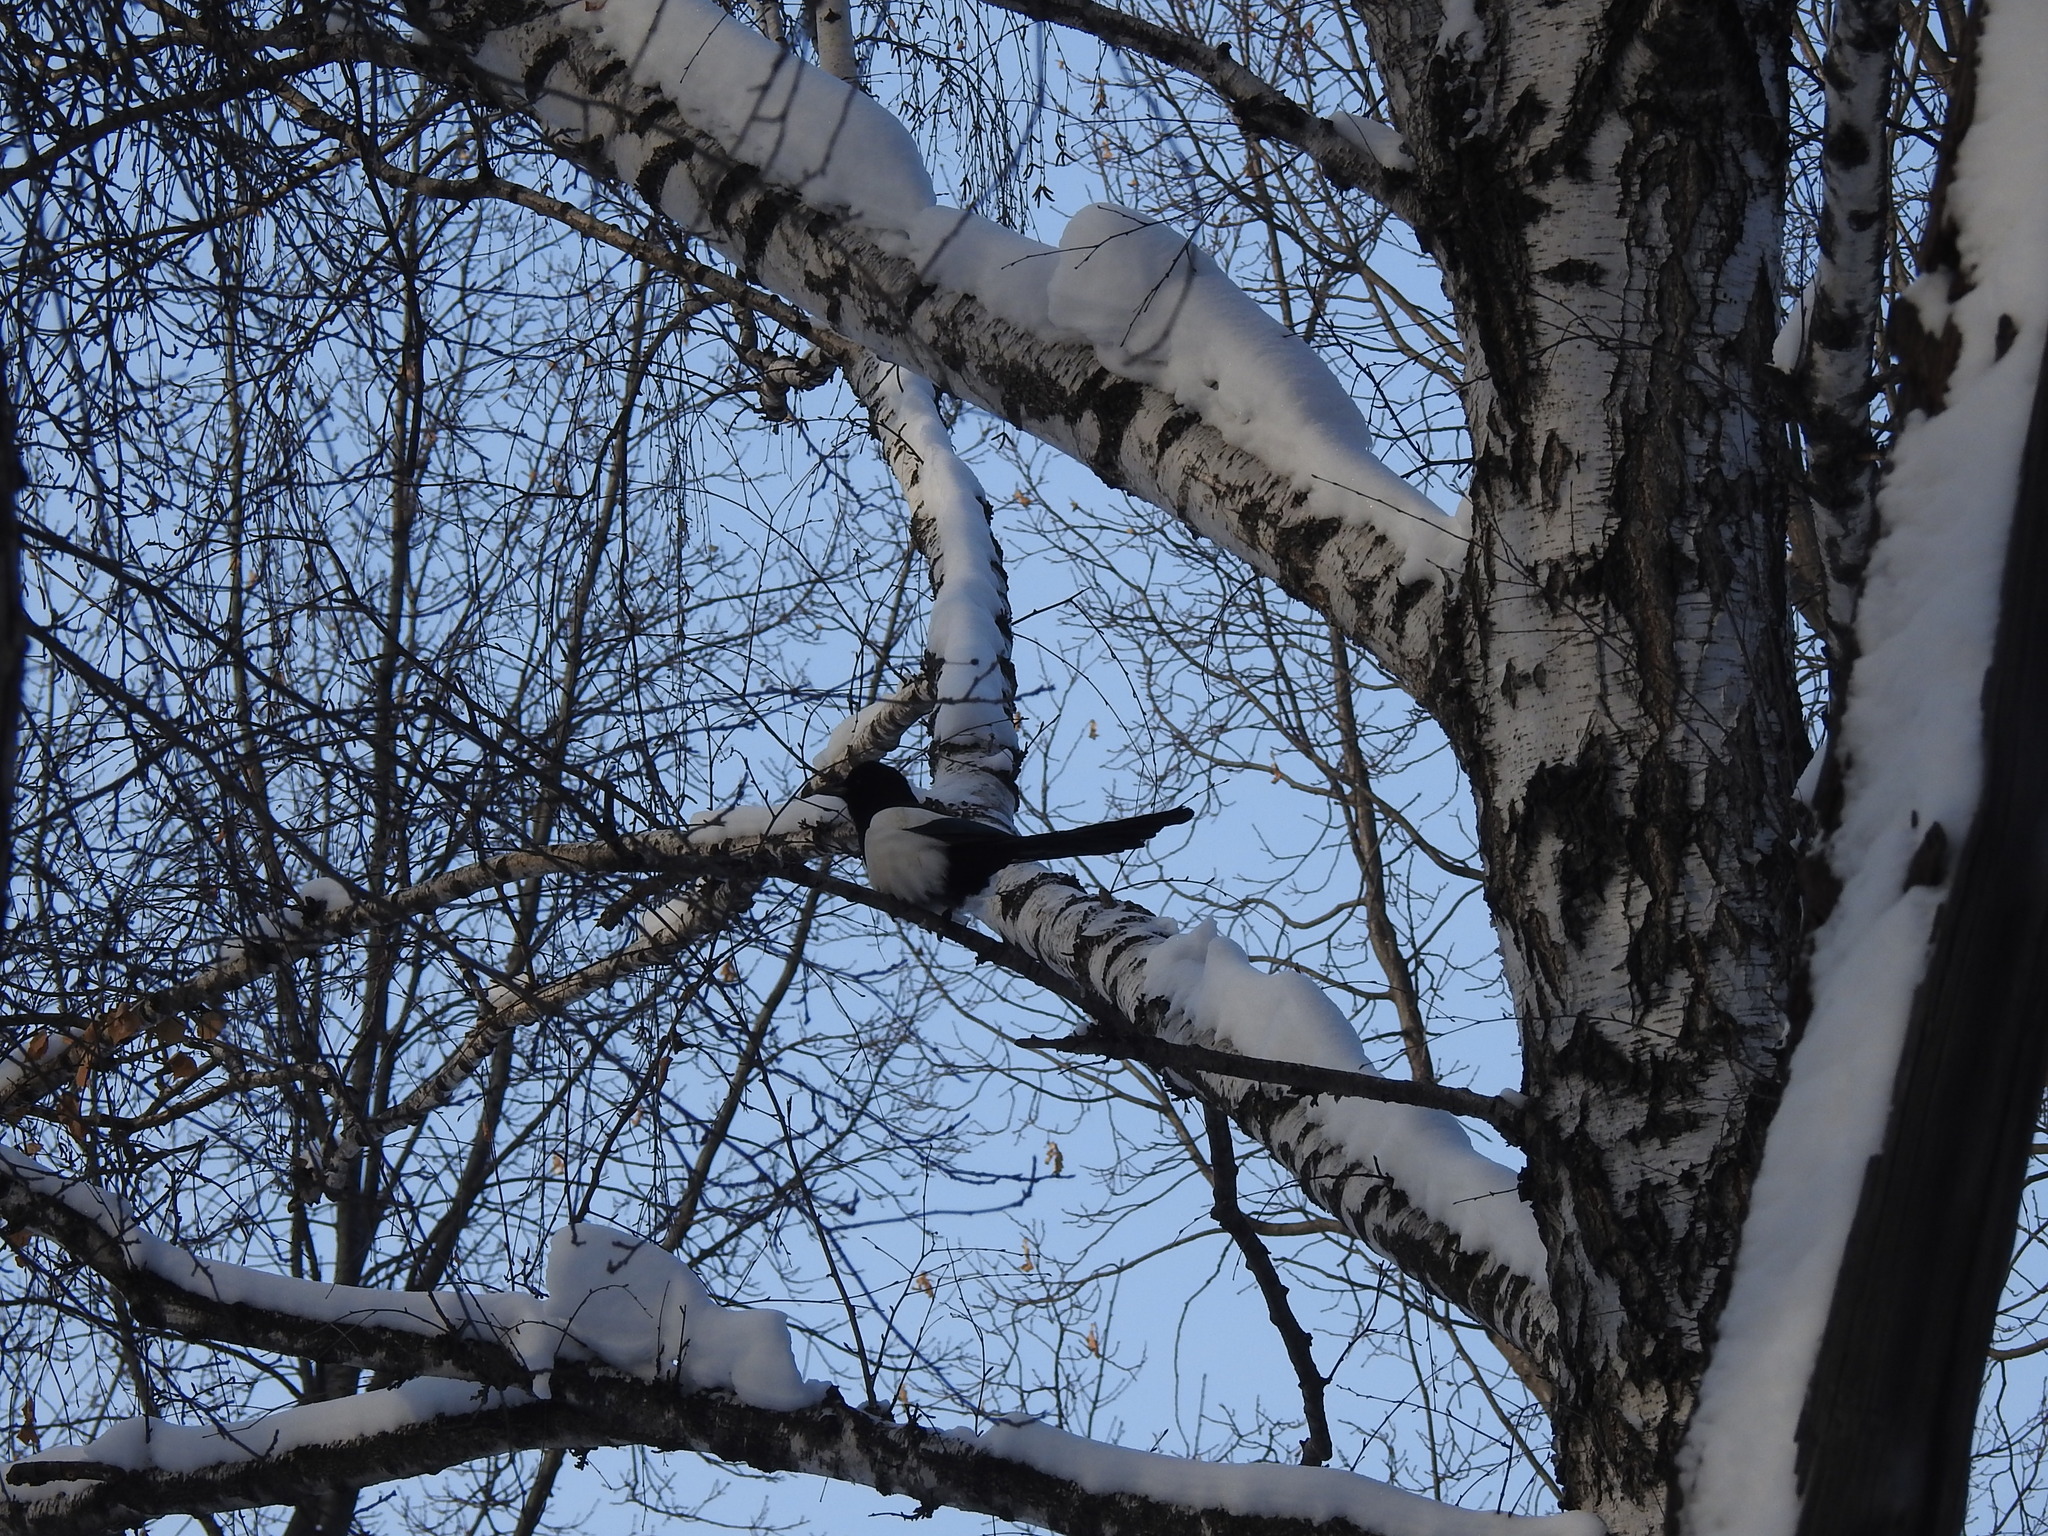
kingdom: Animalia
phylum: Chordata
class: Aves
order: Passeriformes
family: Corvidae
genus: Pica
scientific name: Pica pica
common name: Eurasian magpie
